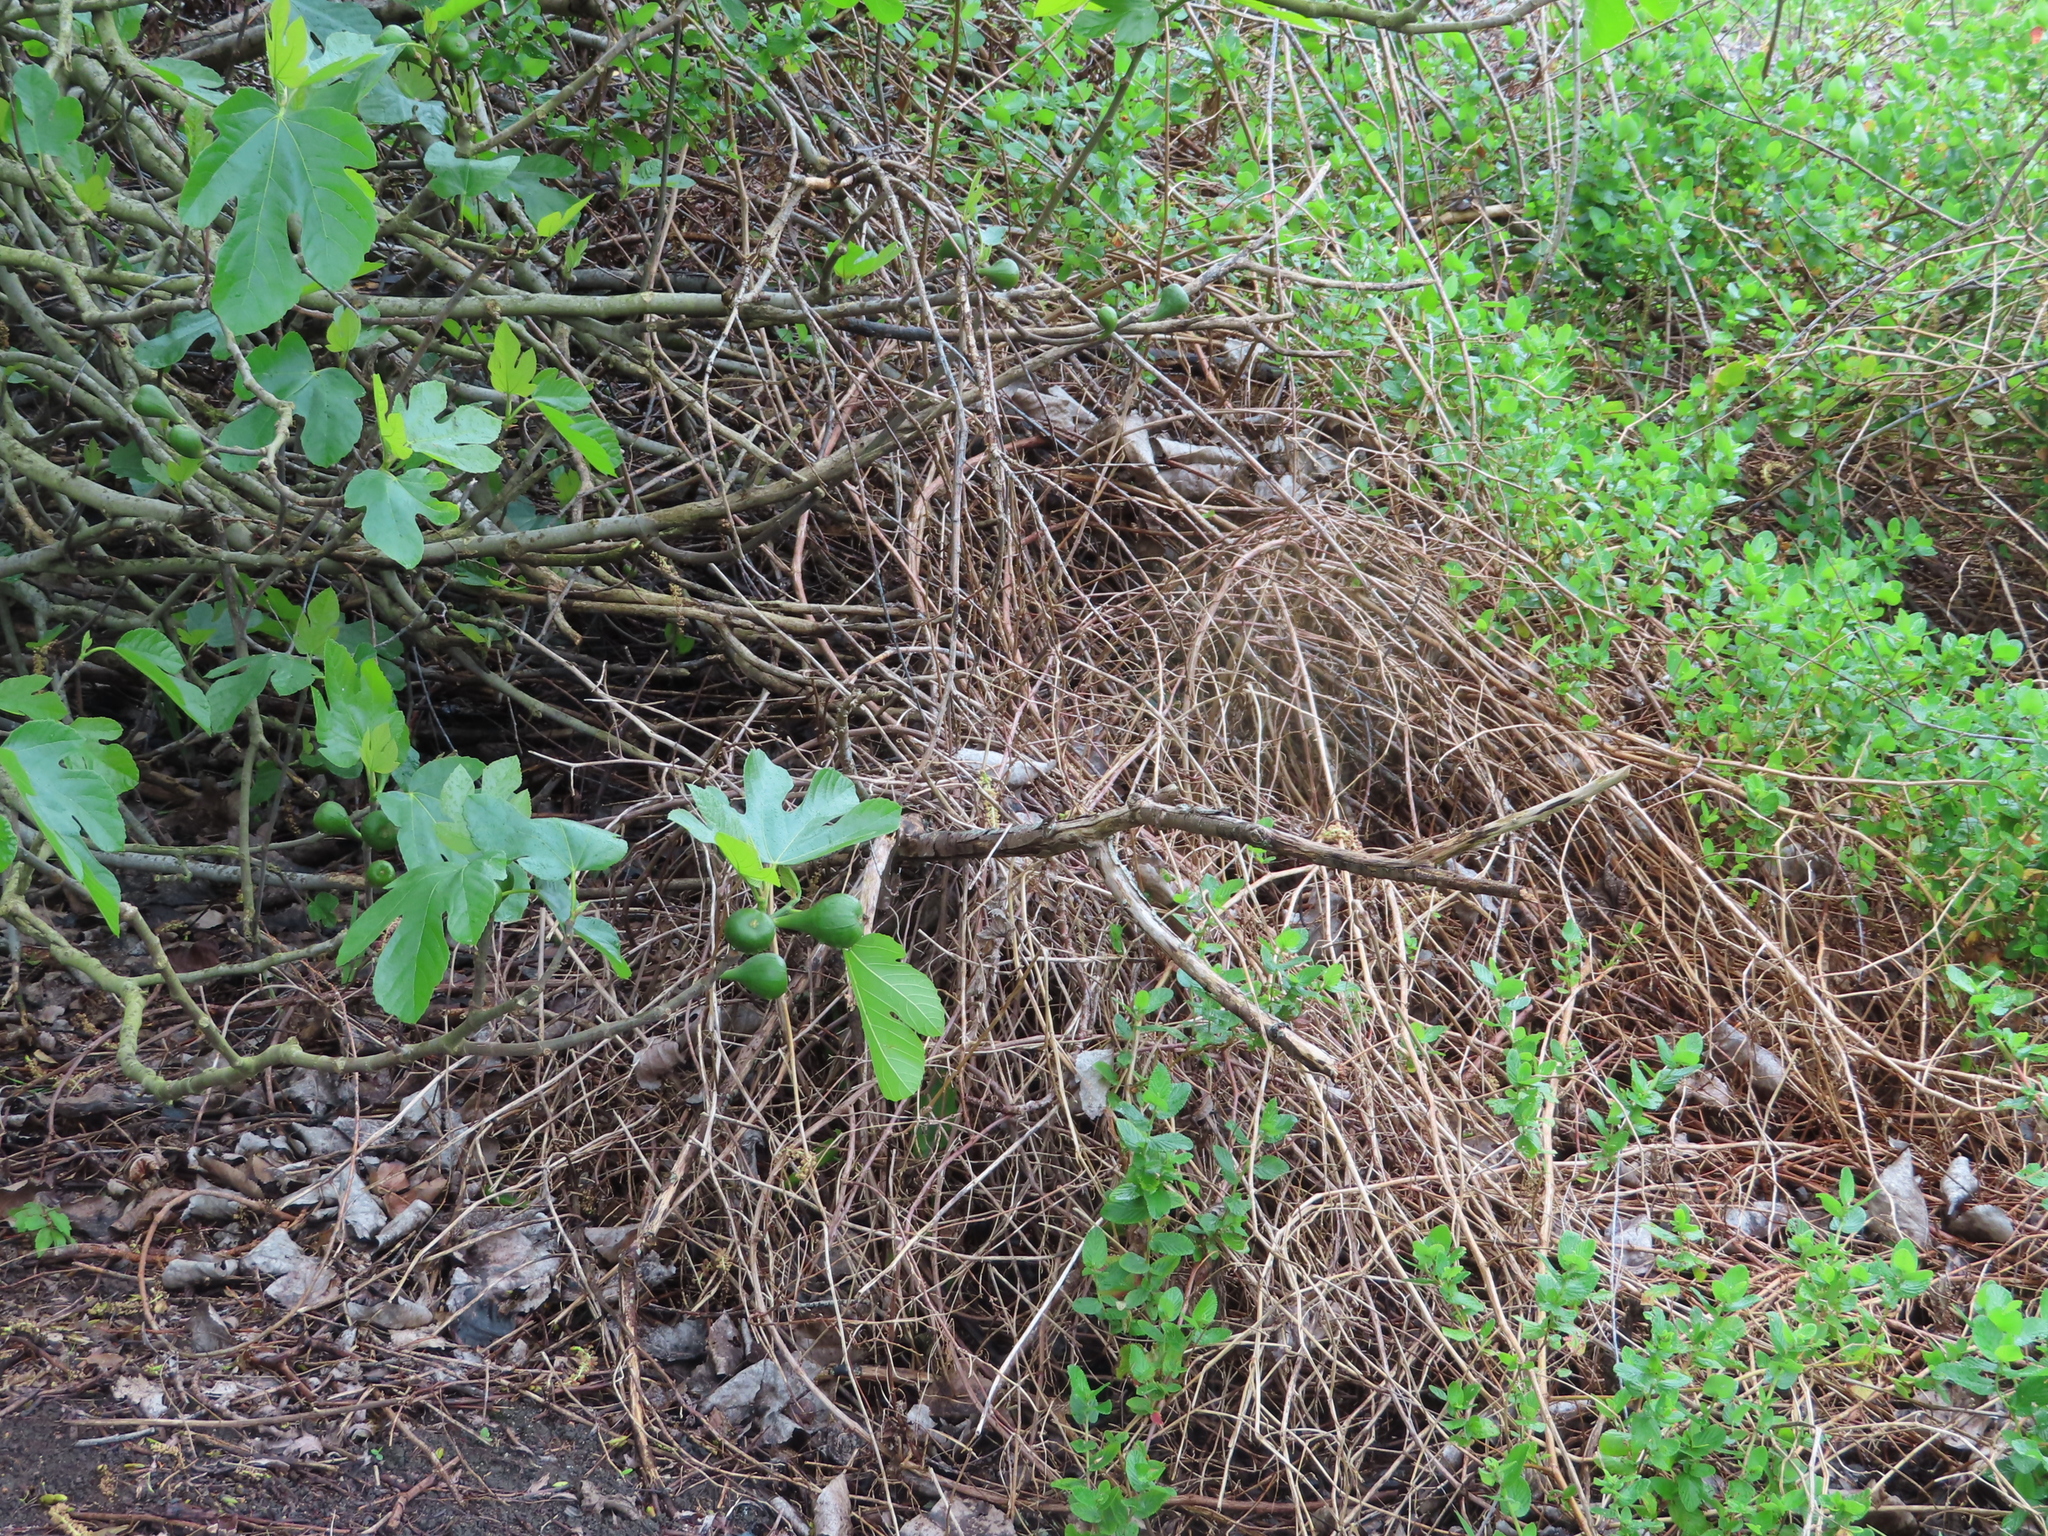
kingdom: Plantae
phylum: Tracheophyta
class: Magnoliopsida
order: Rosales
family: Moraceae
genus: Ficus
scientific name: Ficus carica
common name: Fig
